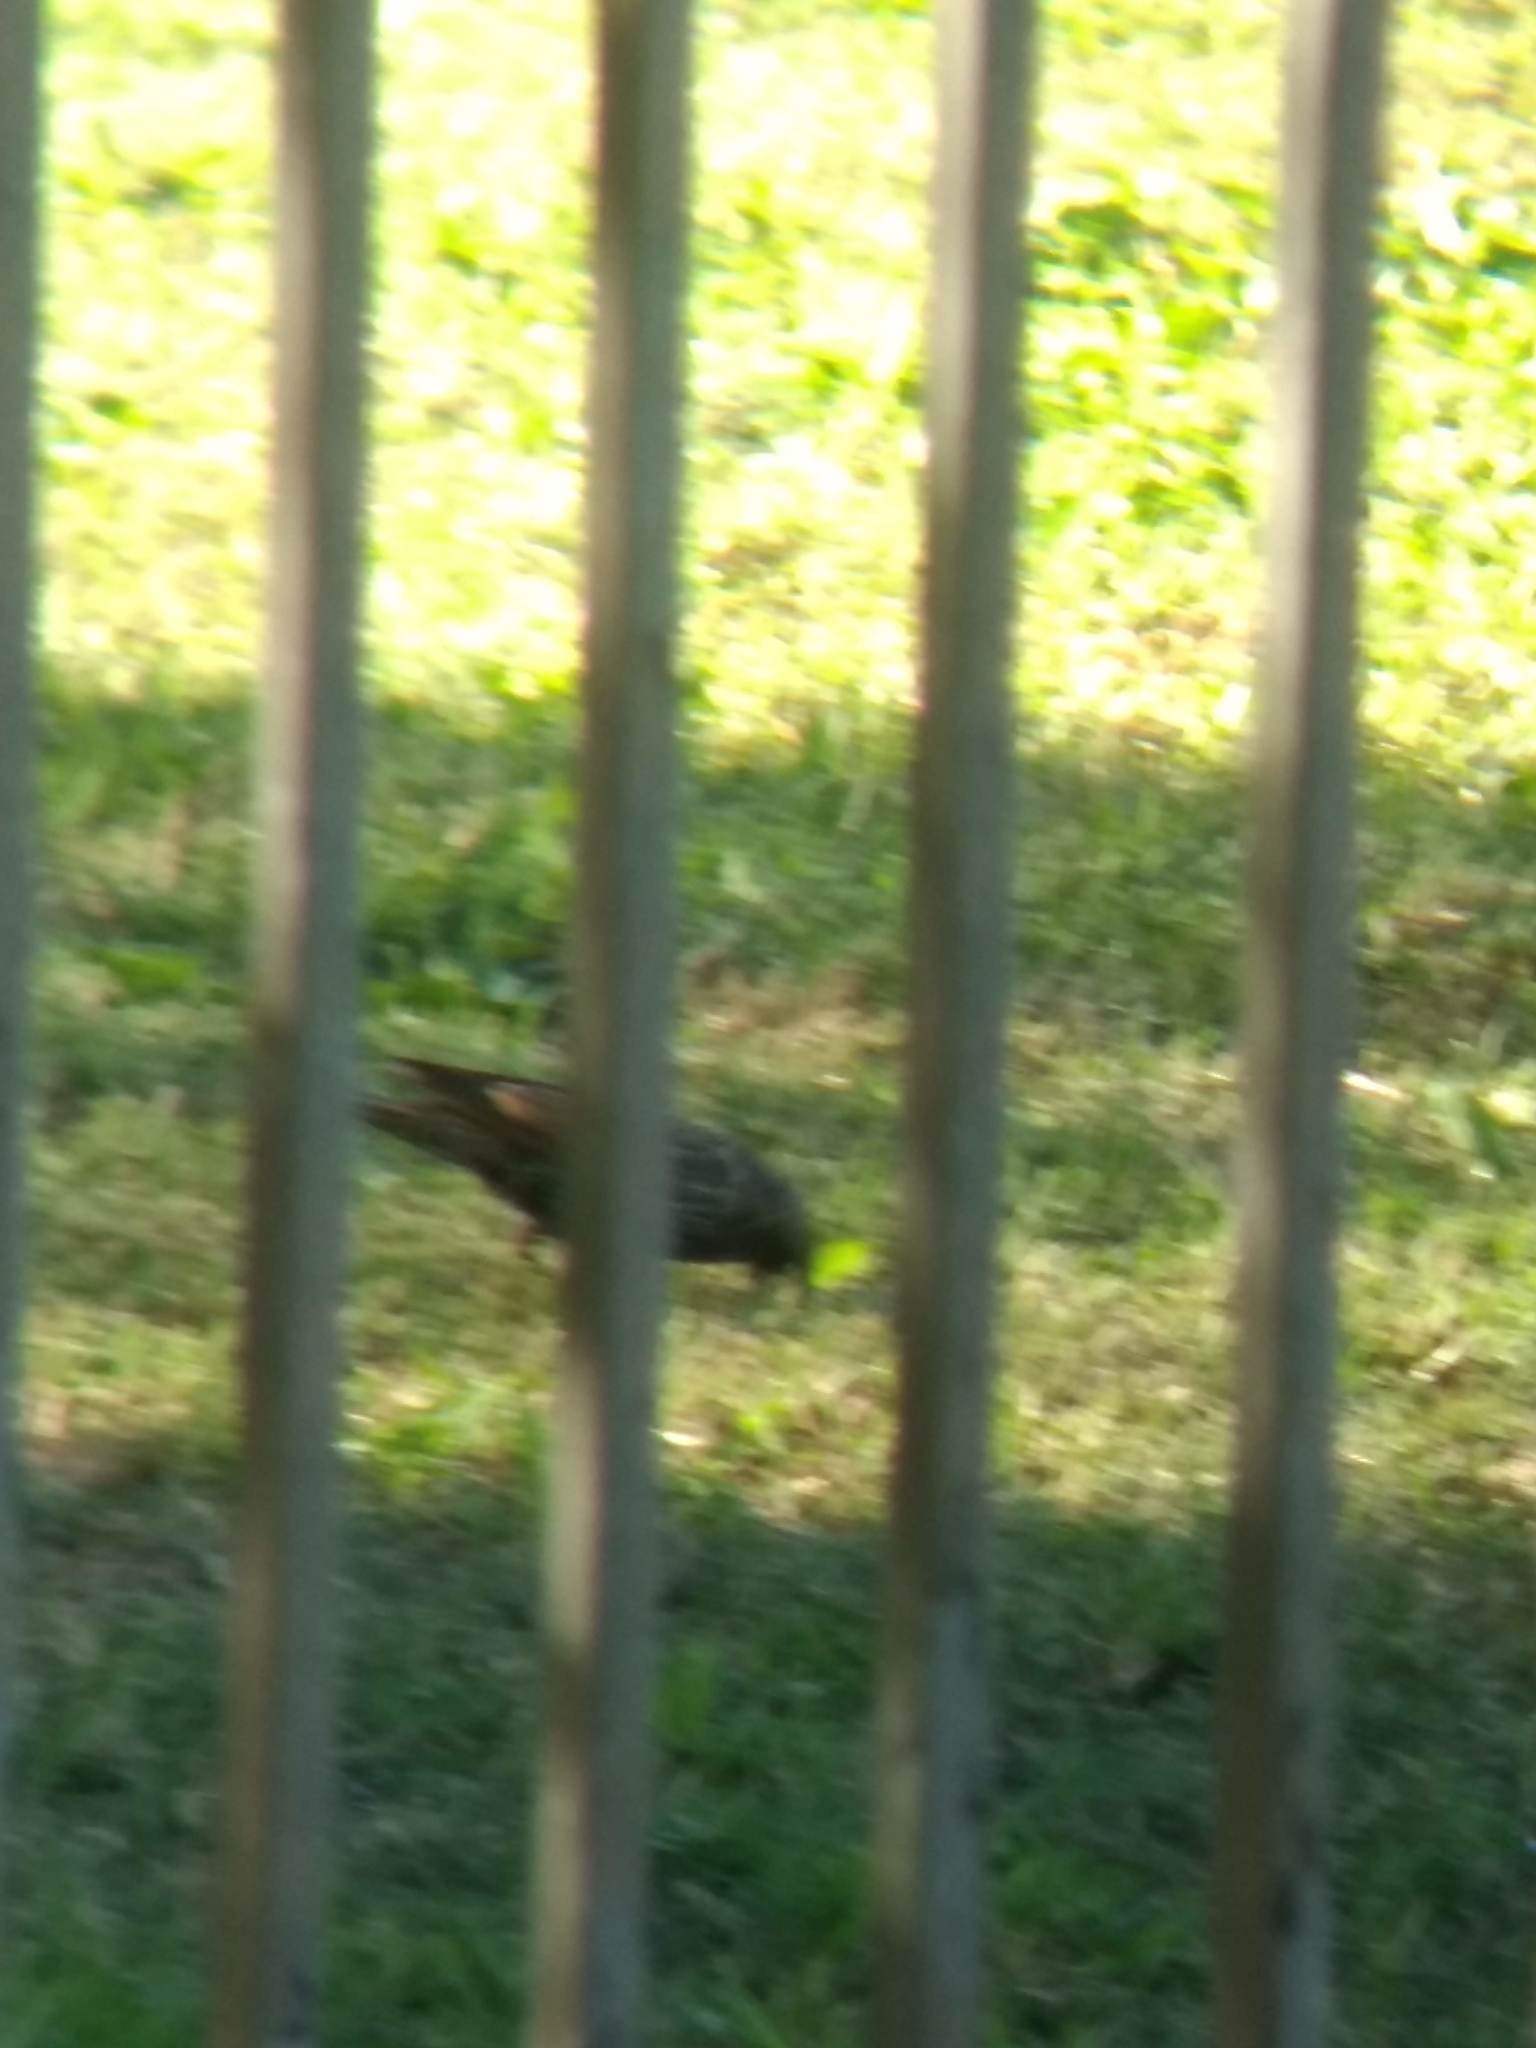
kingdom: Animalia
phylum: Chordata
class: Aves
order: Passeriformes
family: Sturnidae
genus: Sturnus
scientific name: Sturnus vulgaris
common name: Common starling
